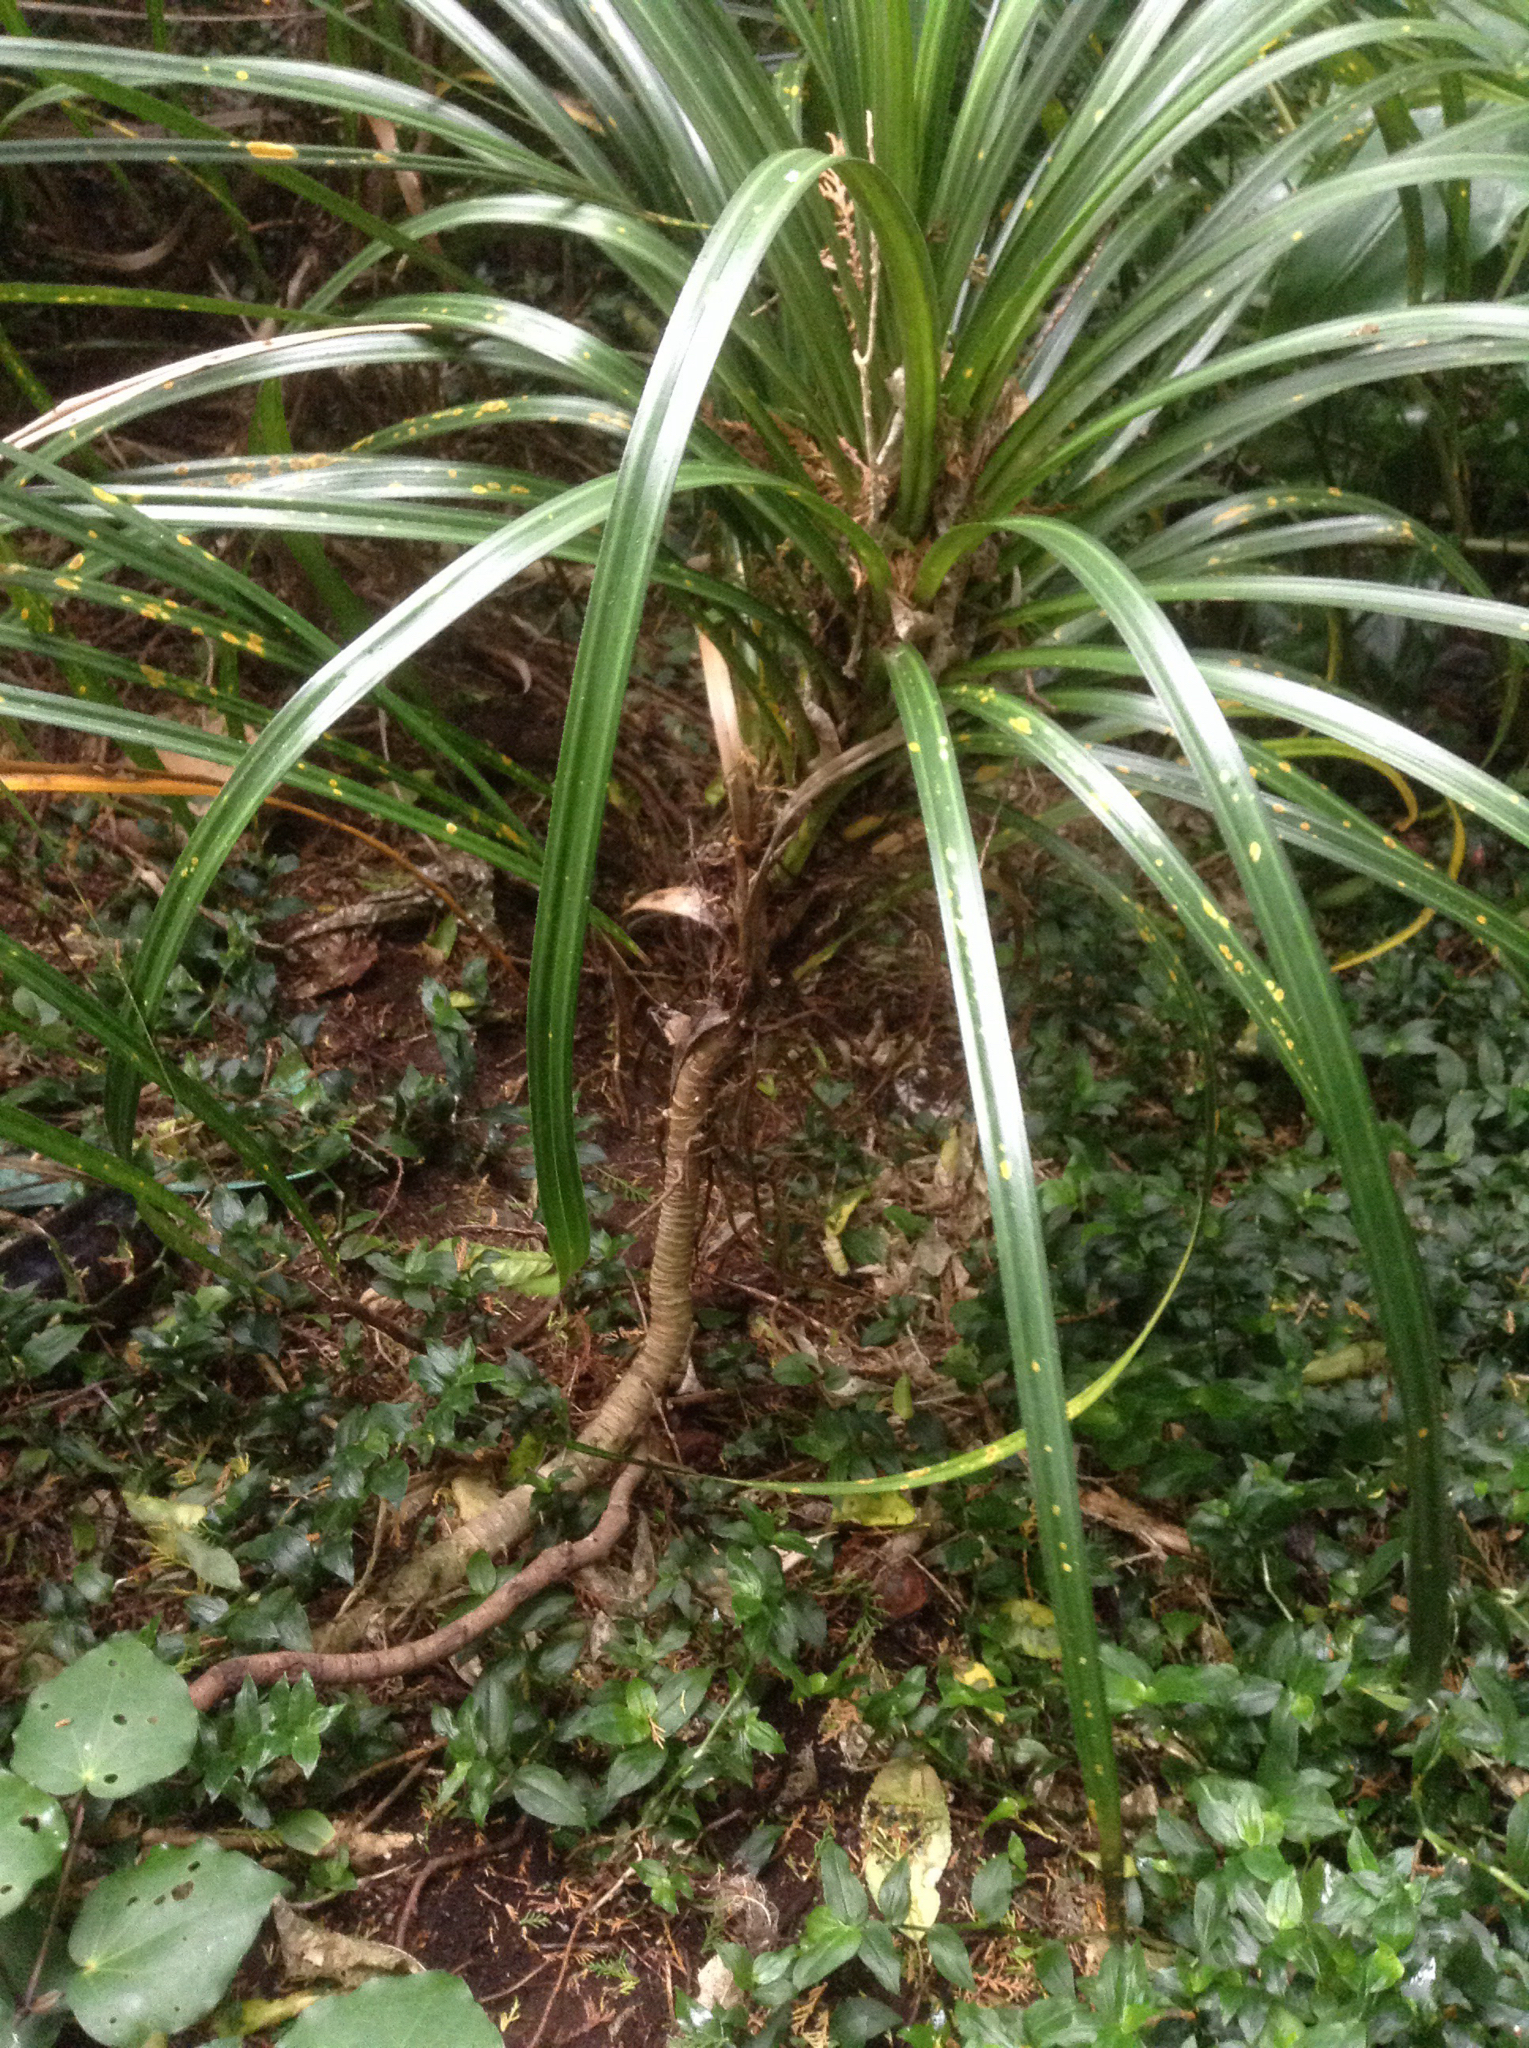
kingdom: Plantae
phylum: Tracheophyta
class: Liliopsida
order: Pandanales
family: Pandanaceae
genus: Freycinetia
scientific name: Freycinetia banksii
